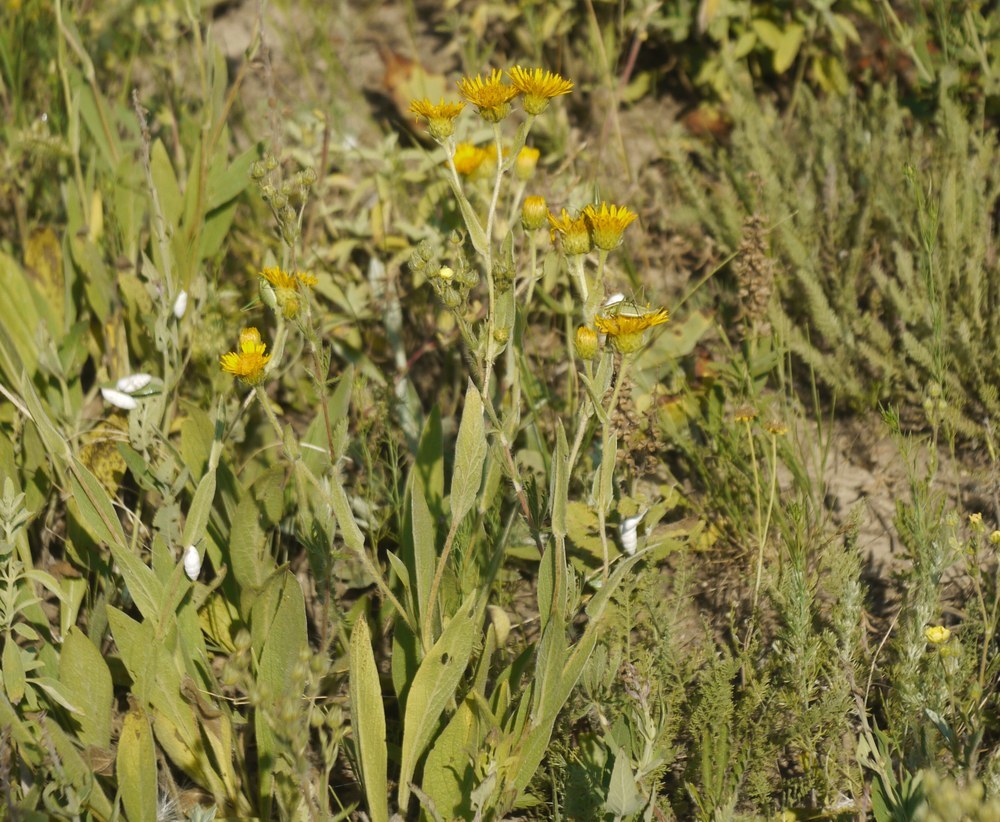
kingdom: Plantae
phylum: Tracheophyta
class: Magnoliopsida
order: Asterales
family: Asteraceae
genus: Pentanema
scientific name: Pentanema oculus-christi
